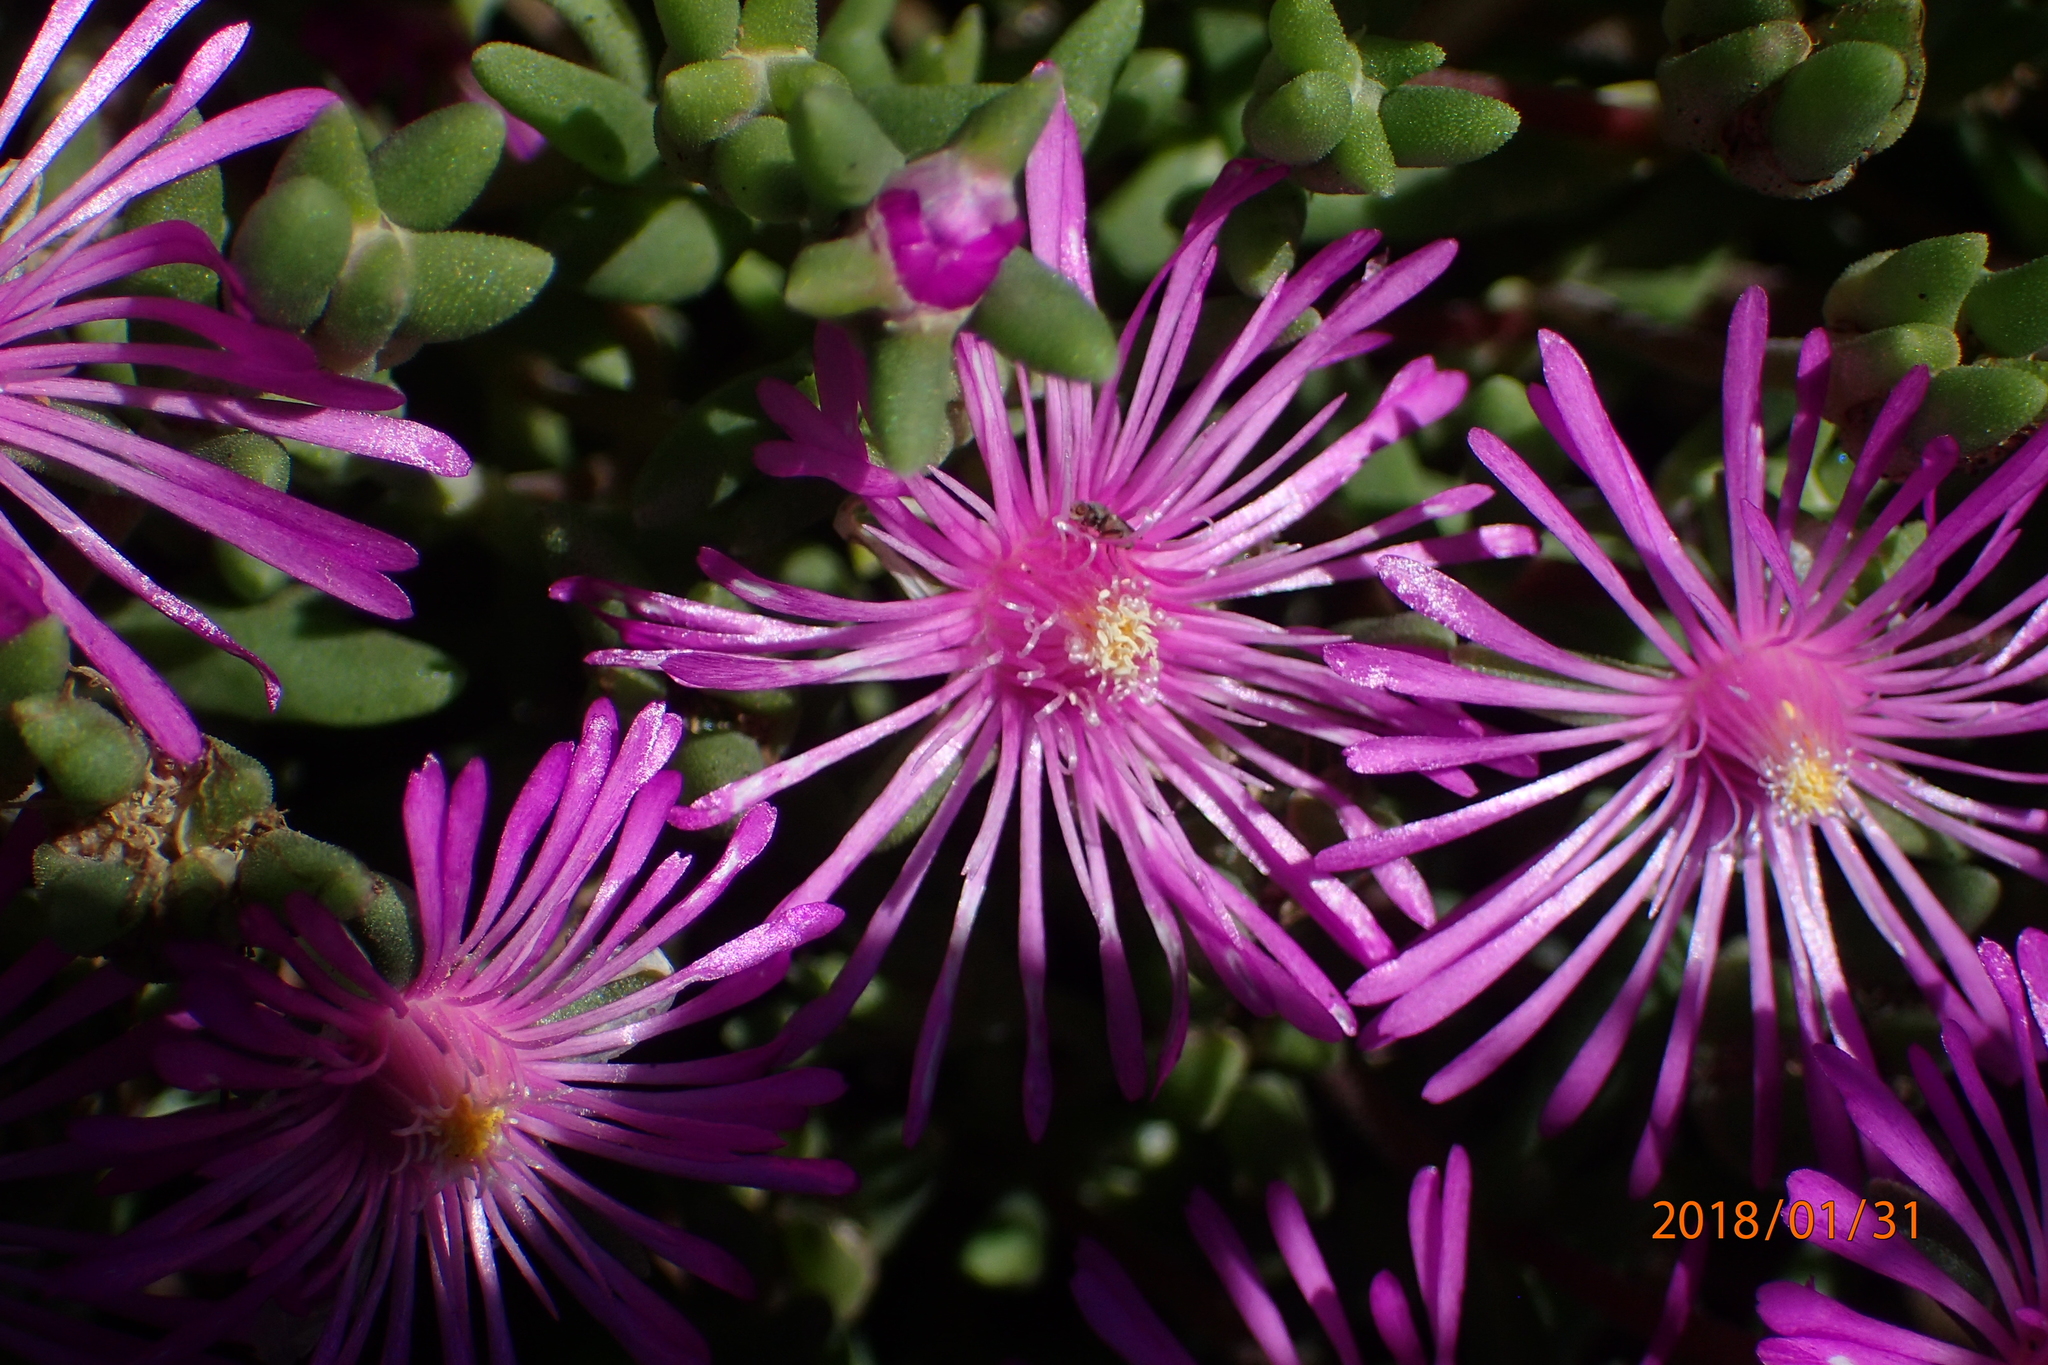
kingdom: Plantae
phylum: Tracheophyta
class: Magnoliopsida
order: Caryophyllales
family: Aizoaceae
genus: Delosperma
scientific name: Delosperma lavisiae
